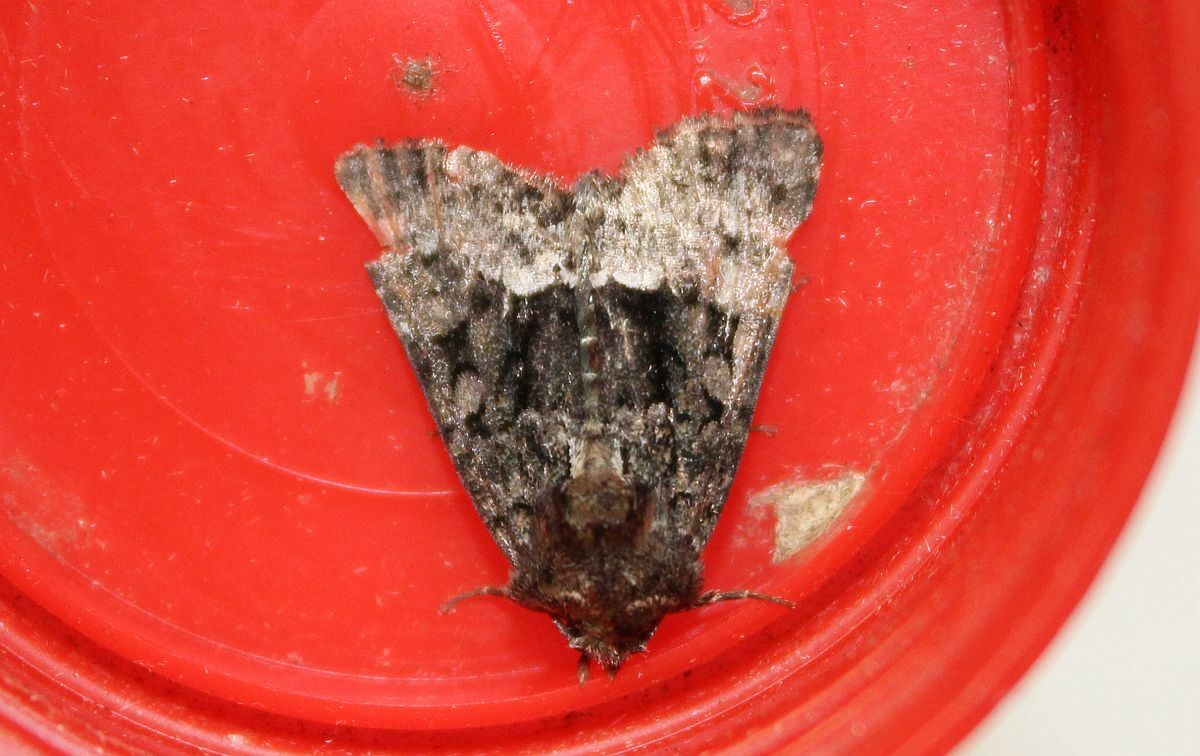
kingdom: Animalia
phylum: Arthropoda
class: Insecta
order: Lepidoptera
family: Noctuidae
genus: Oligia
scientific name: Oligia strigilis
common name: Marbled minor
